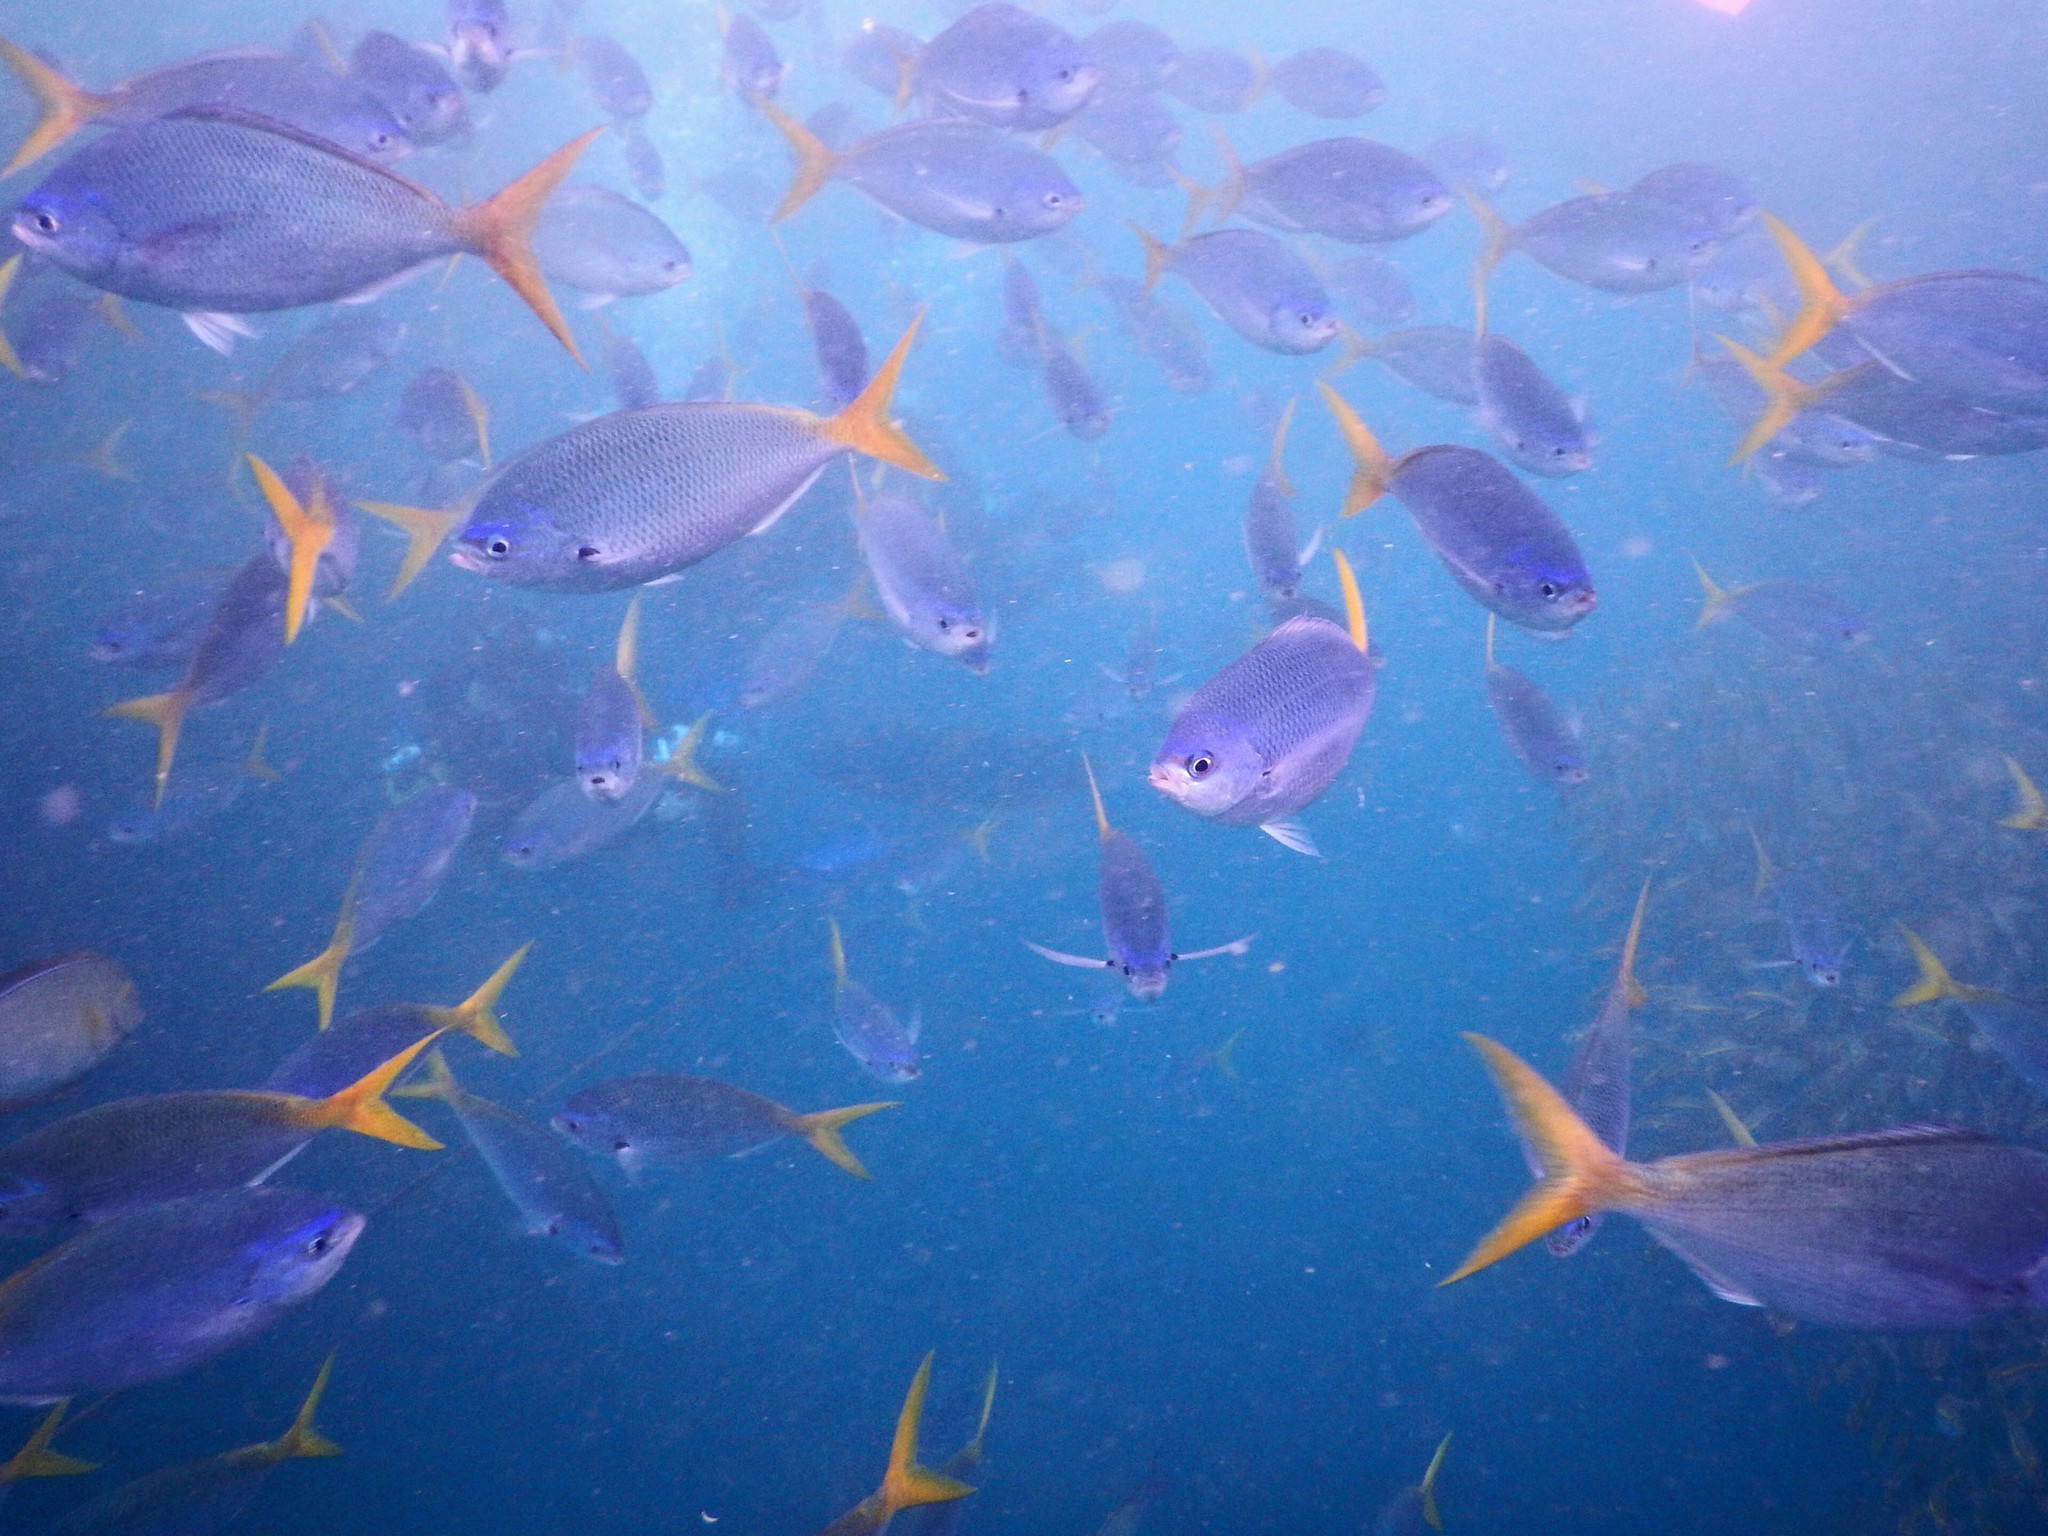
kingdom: Animalia
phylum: Chordata
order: Perciformes
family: Caesionidae
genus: Caesio
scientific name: Caesio cuning
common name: Red-bellied fusilier
